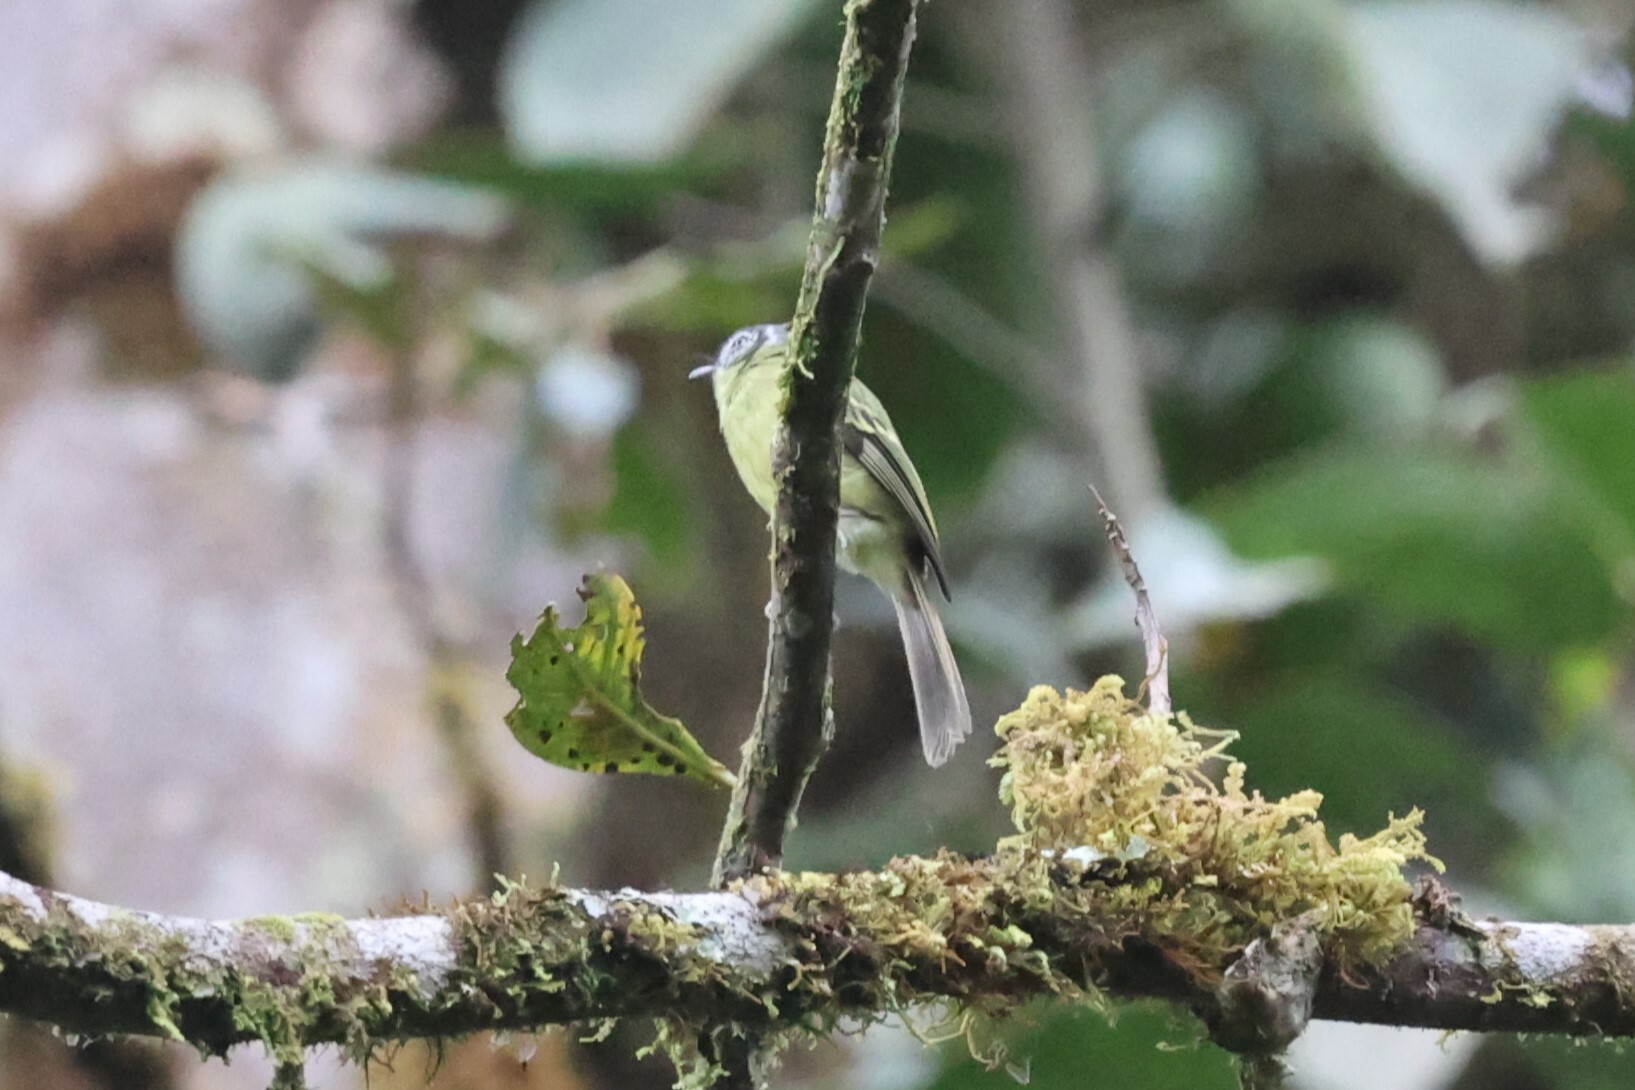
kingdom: Animalia
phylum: Chordata
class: Aves
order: Passeriformes
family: Tyrannidae
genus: Phylloscartes
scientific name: Phylloscartes ophthalmicus
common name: Marble-faced bristle-tyrant
